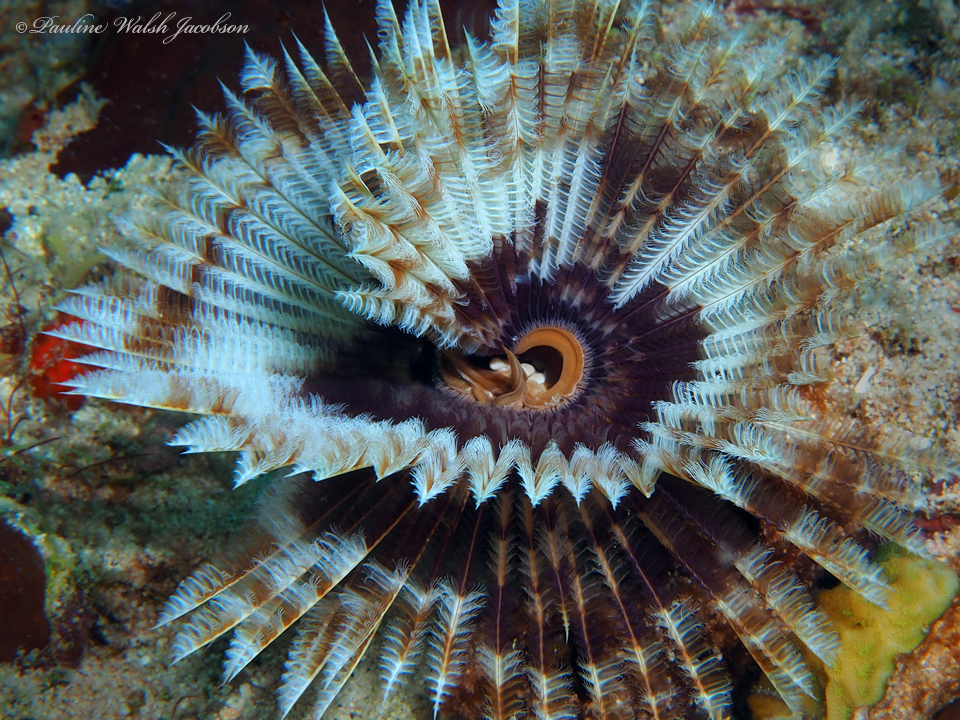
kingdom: Animalia
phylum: Annelida
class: Polychaeta
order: Sabellida
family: Sabellidae
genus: Sabellastarte
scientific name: Sabellastarte magnifica
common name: Giant feather-duster worm
